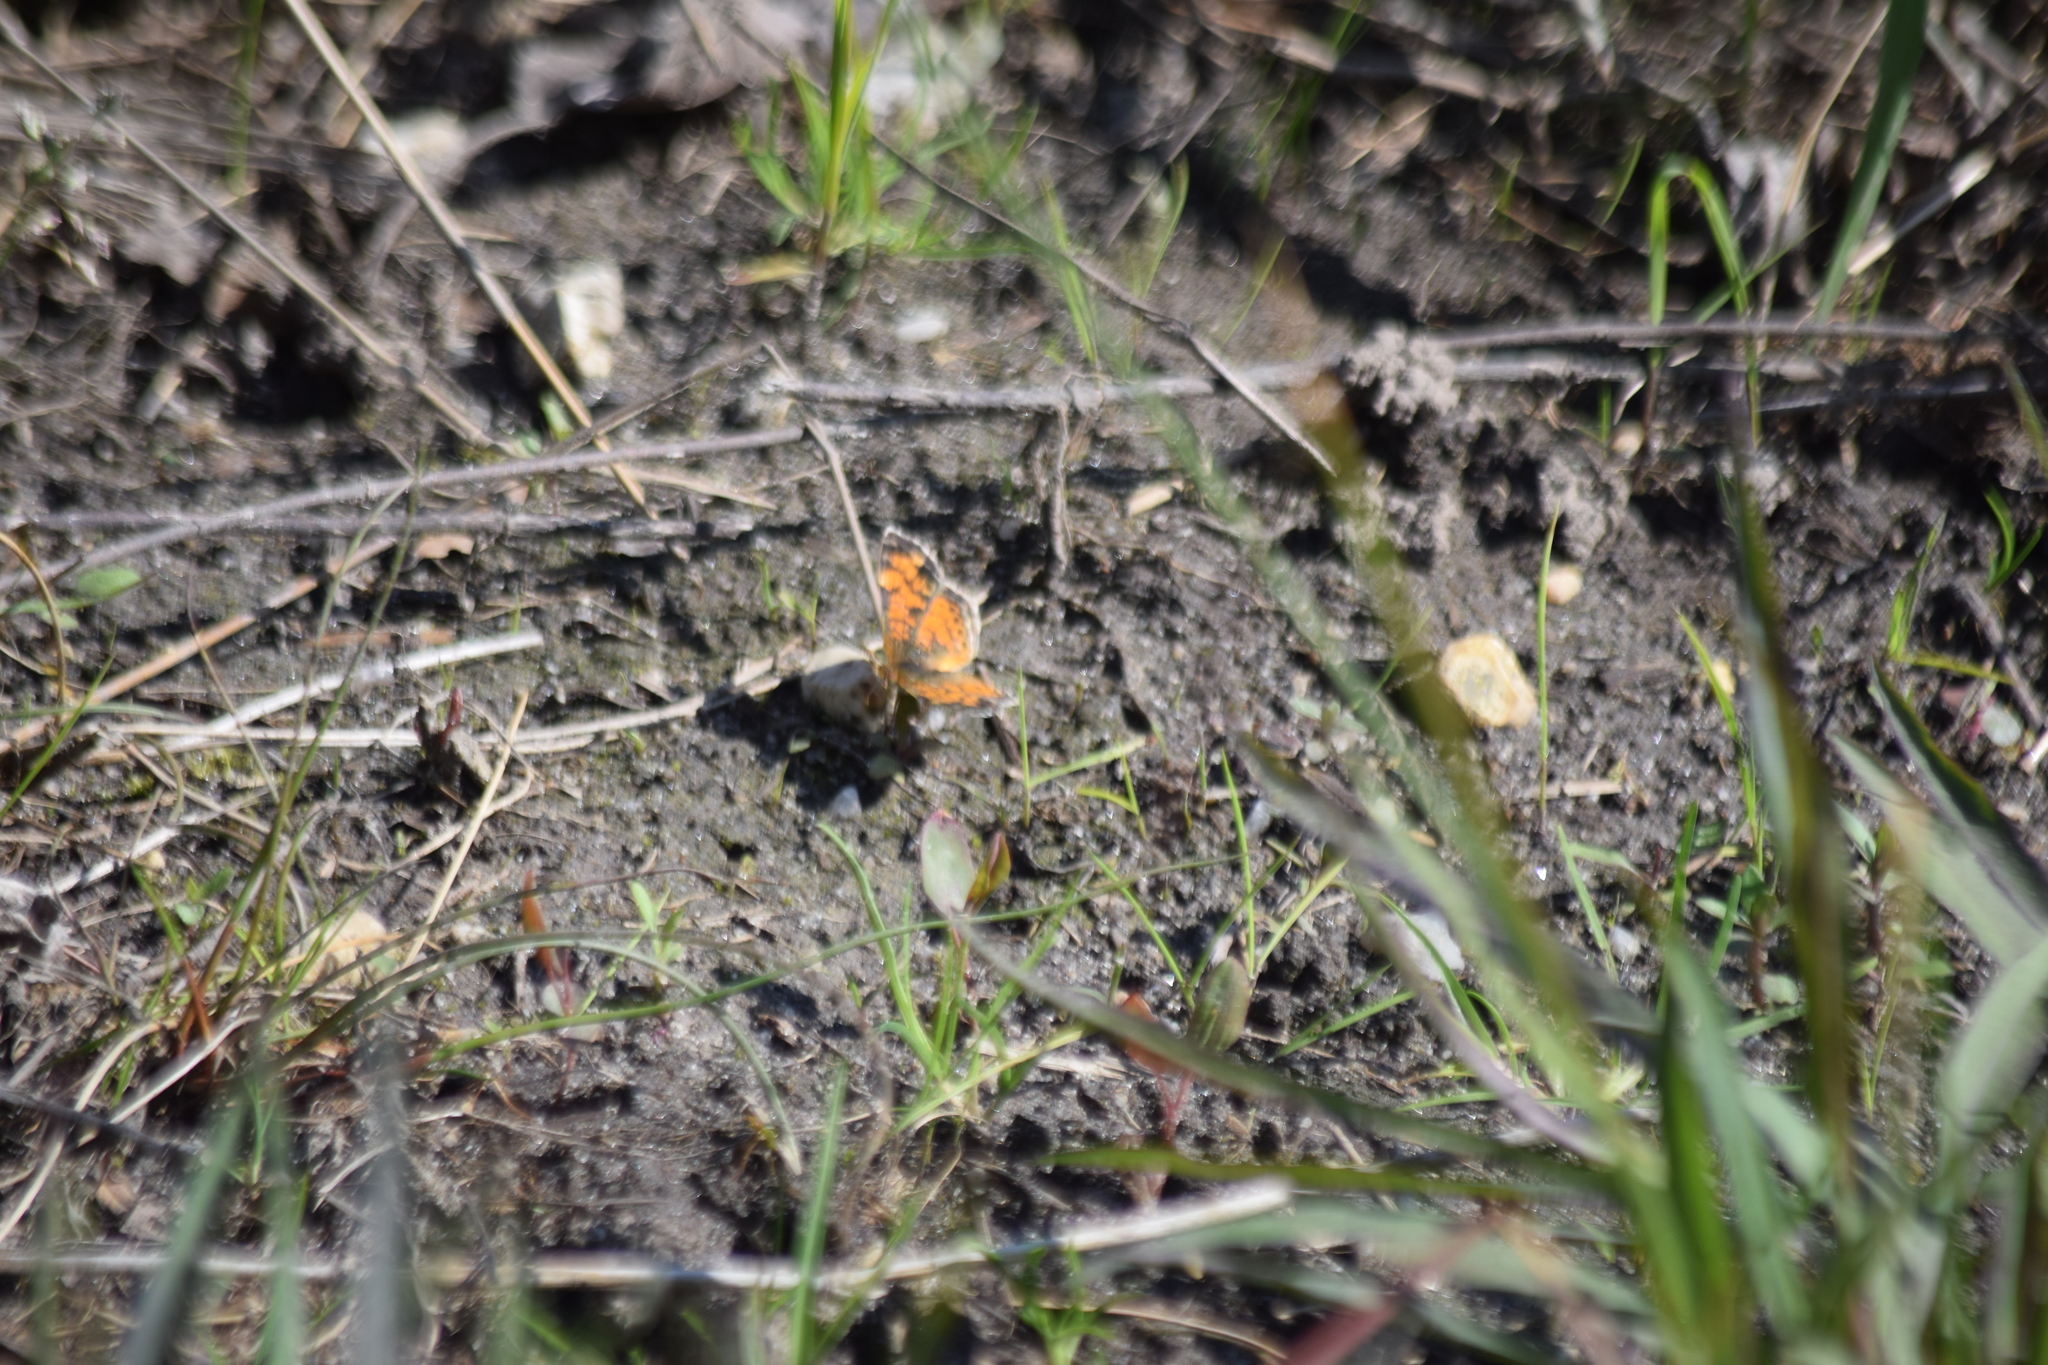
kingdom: Animalia
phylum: Arthropoda
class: Insecta
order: Lepidoptera
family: Nymphalidae
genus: Phyciodes
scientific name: Phyciodes tharos
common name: Pearl crescent
